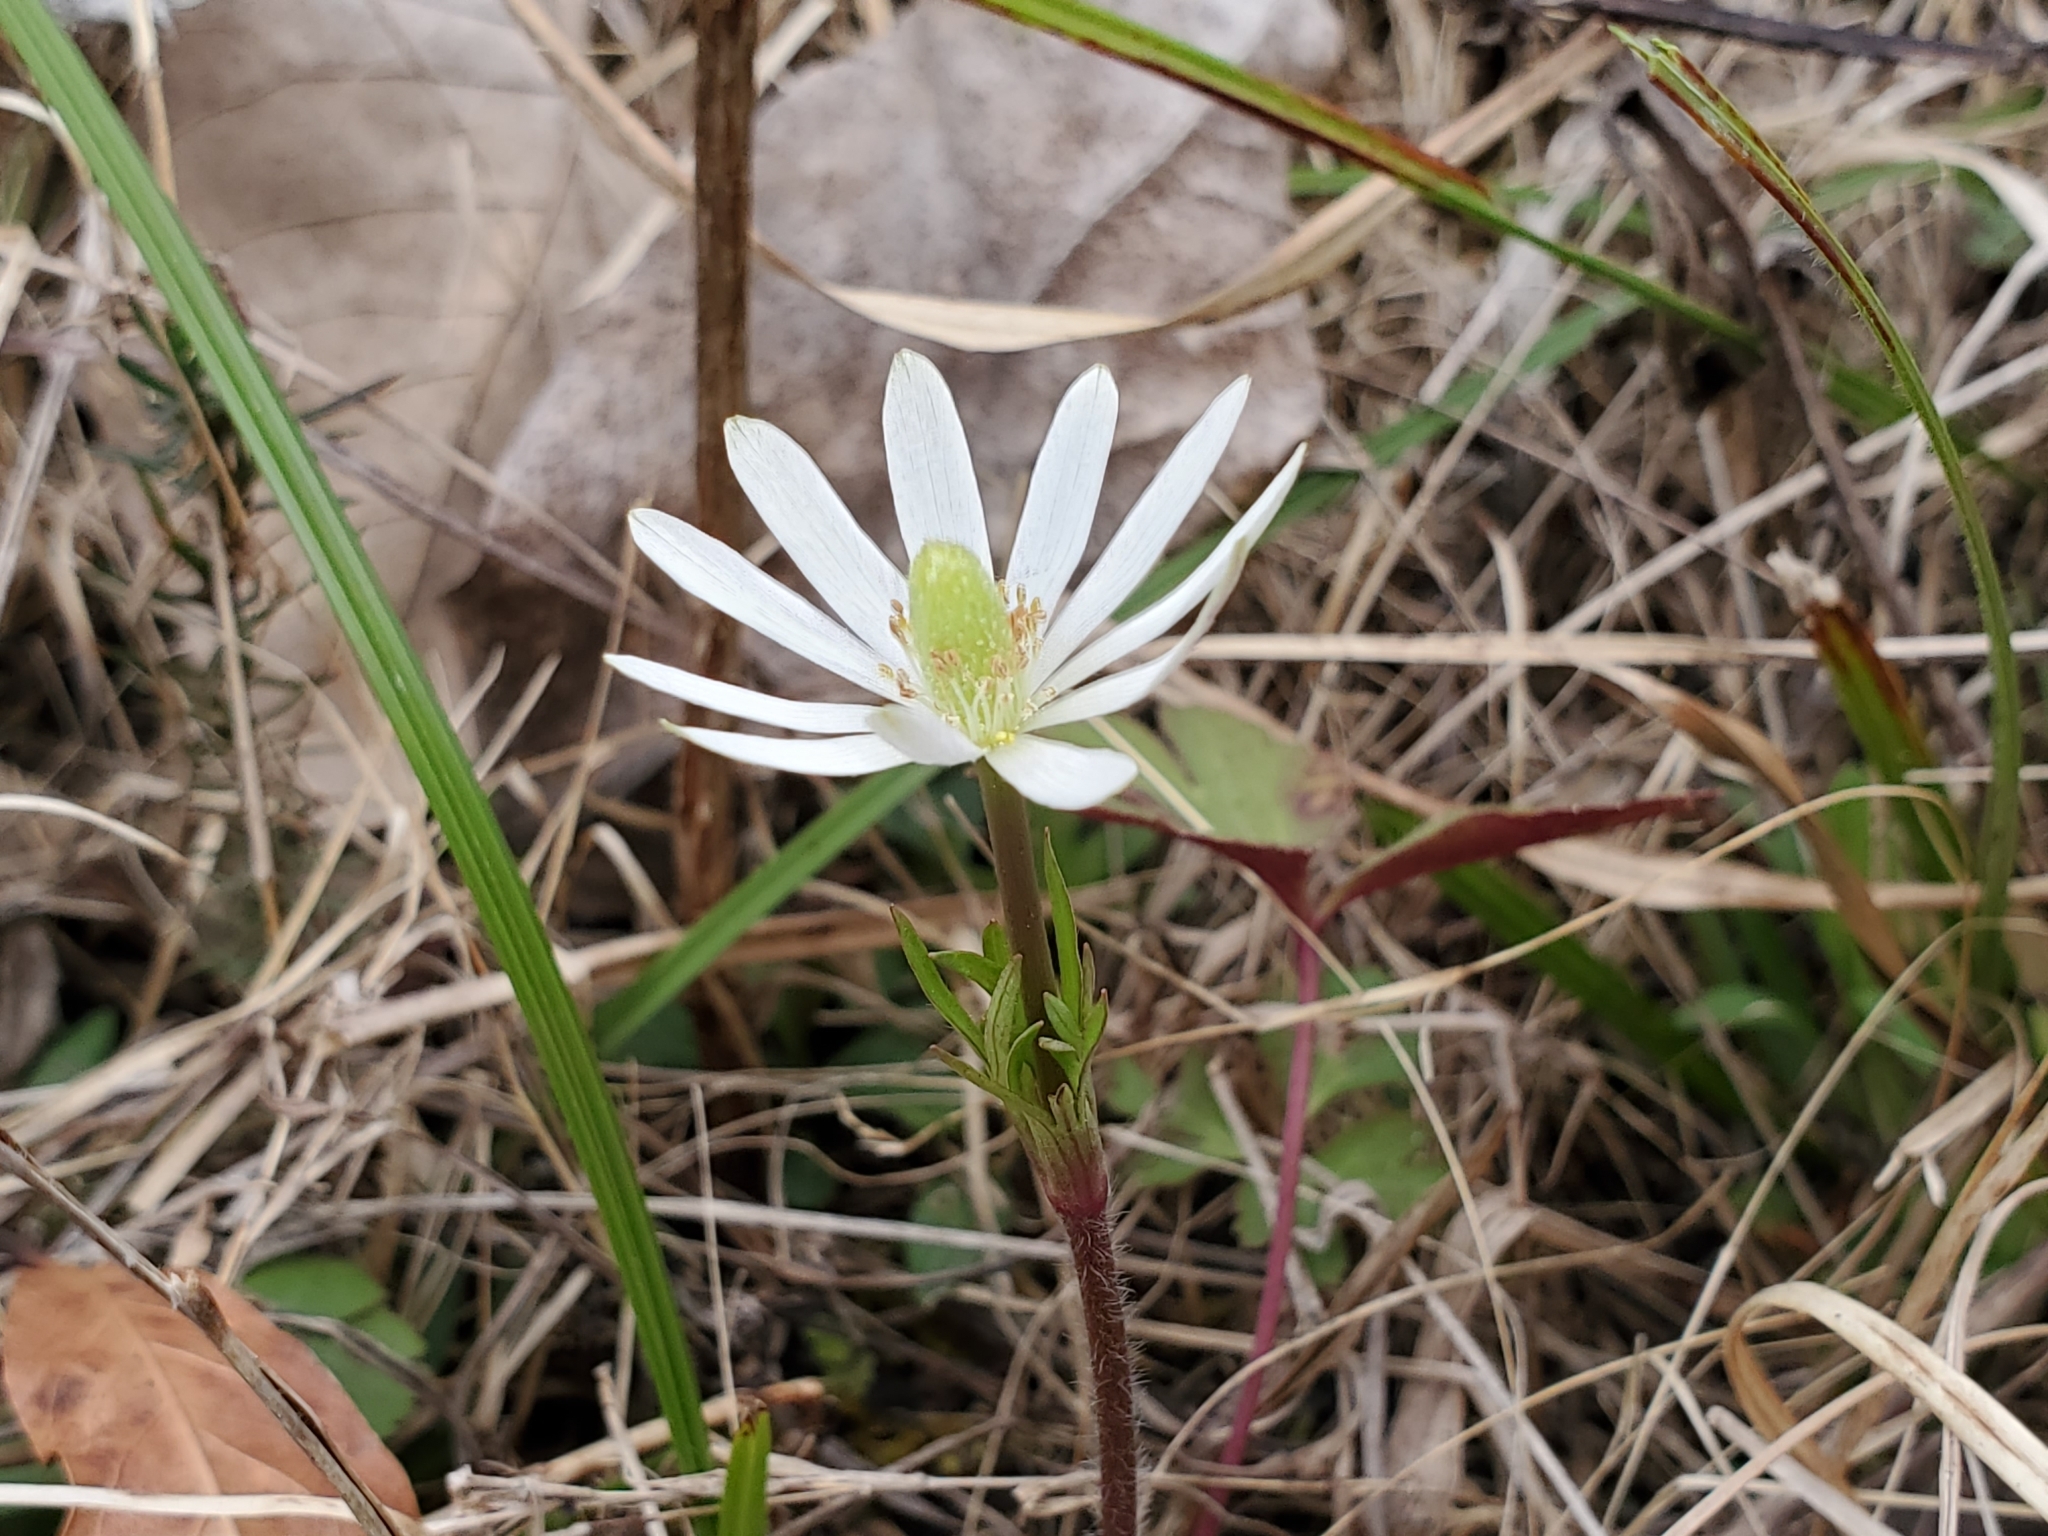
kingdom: Plantae
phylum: Tracheophyta
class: Magnoliopsida
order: Ranunculales
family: Ranunculaceae
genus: Anemone
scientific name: Anemone berlandieri
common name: Ten-petal anemone
